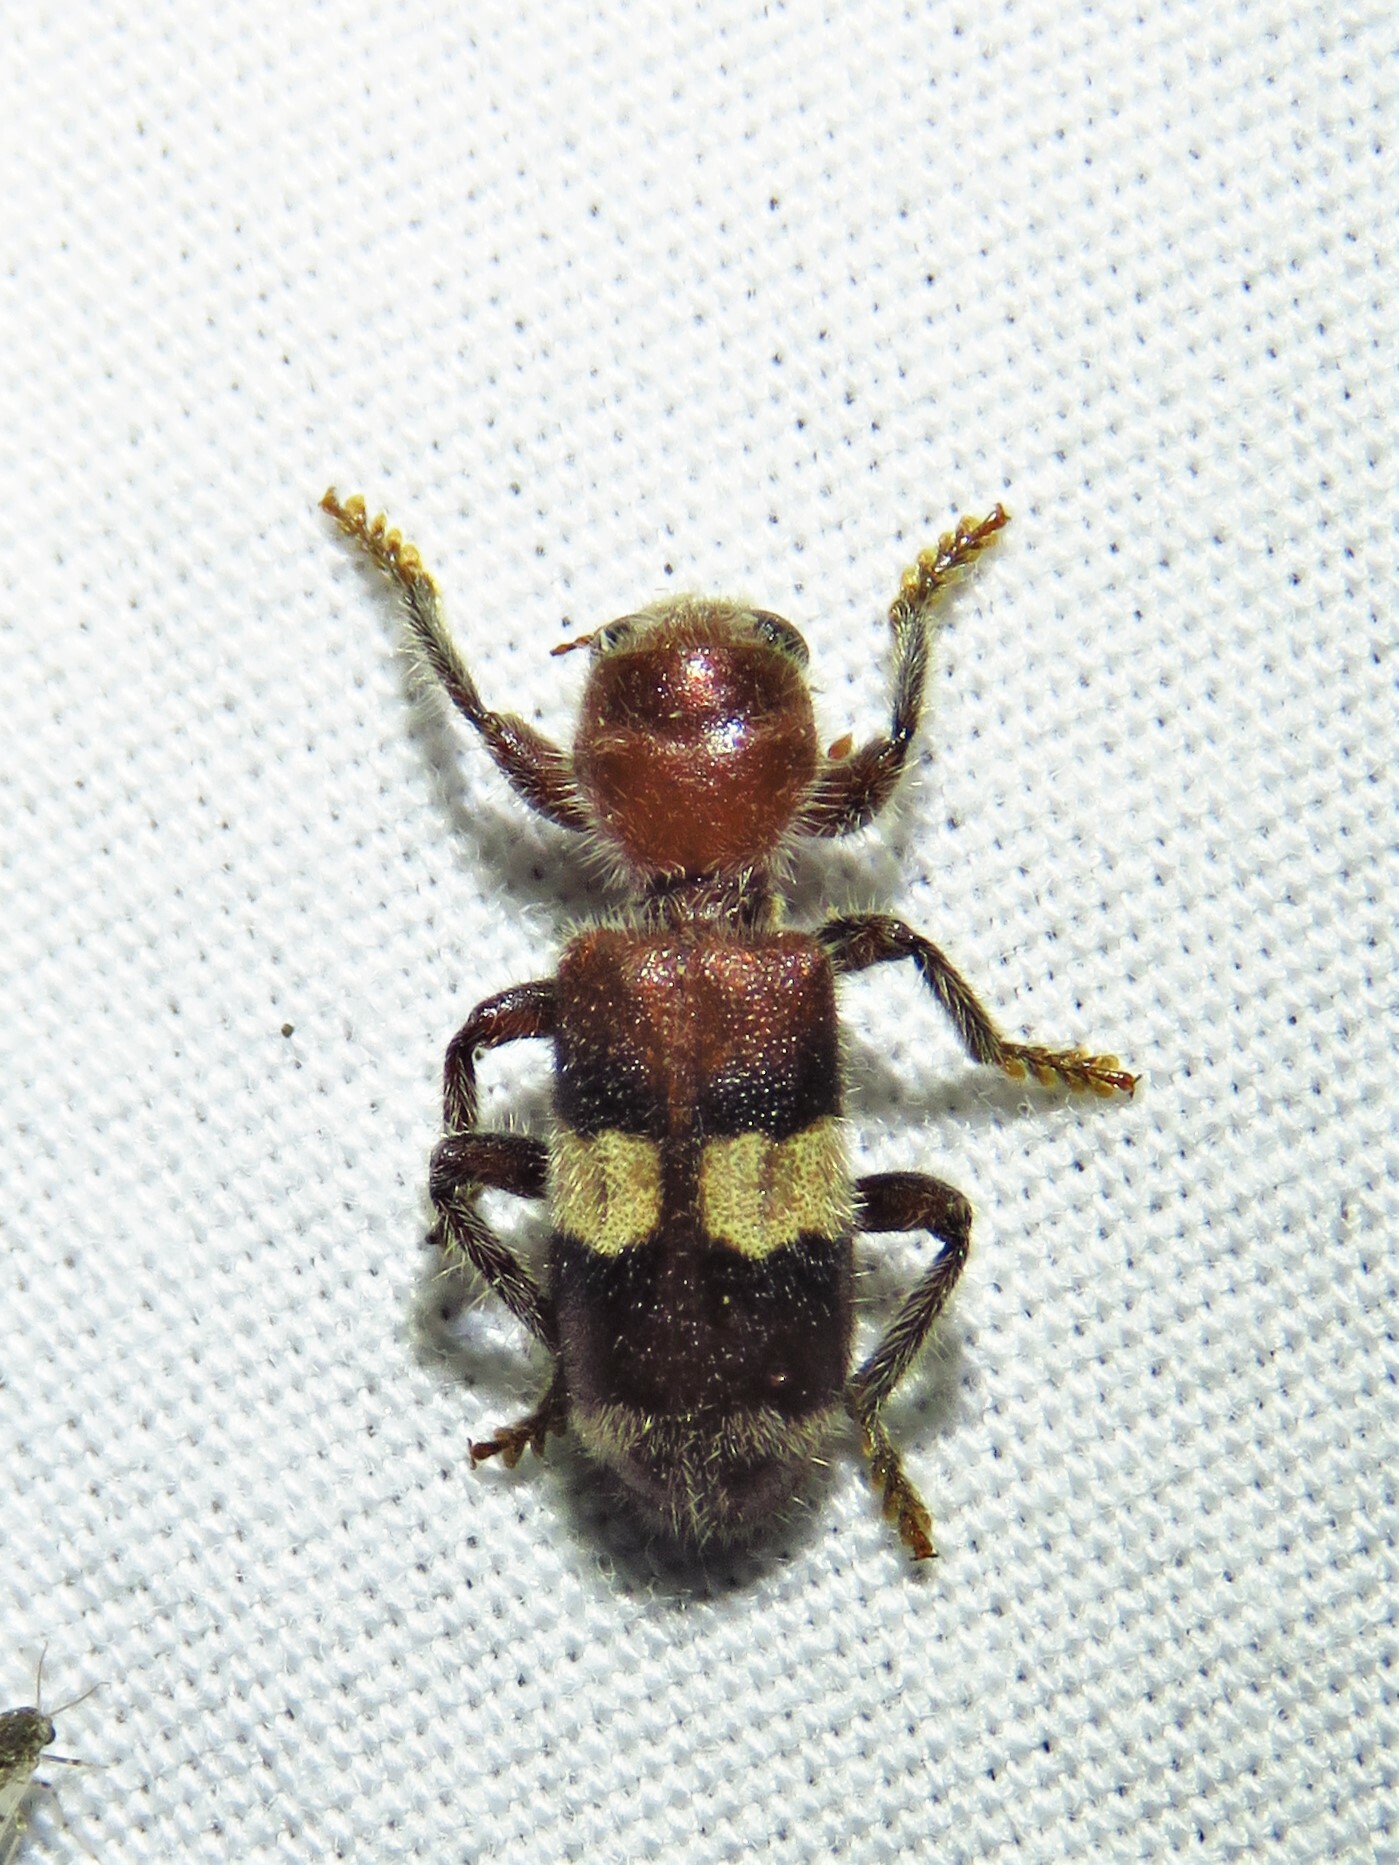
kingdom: Animalia
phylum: Arthropoda
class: Insecta
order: Coleoptera
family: Cleridae
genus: Enoclerus
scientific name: Enoclerus quadrisignatus
